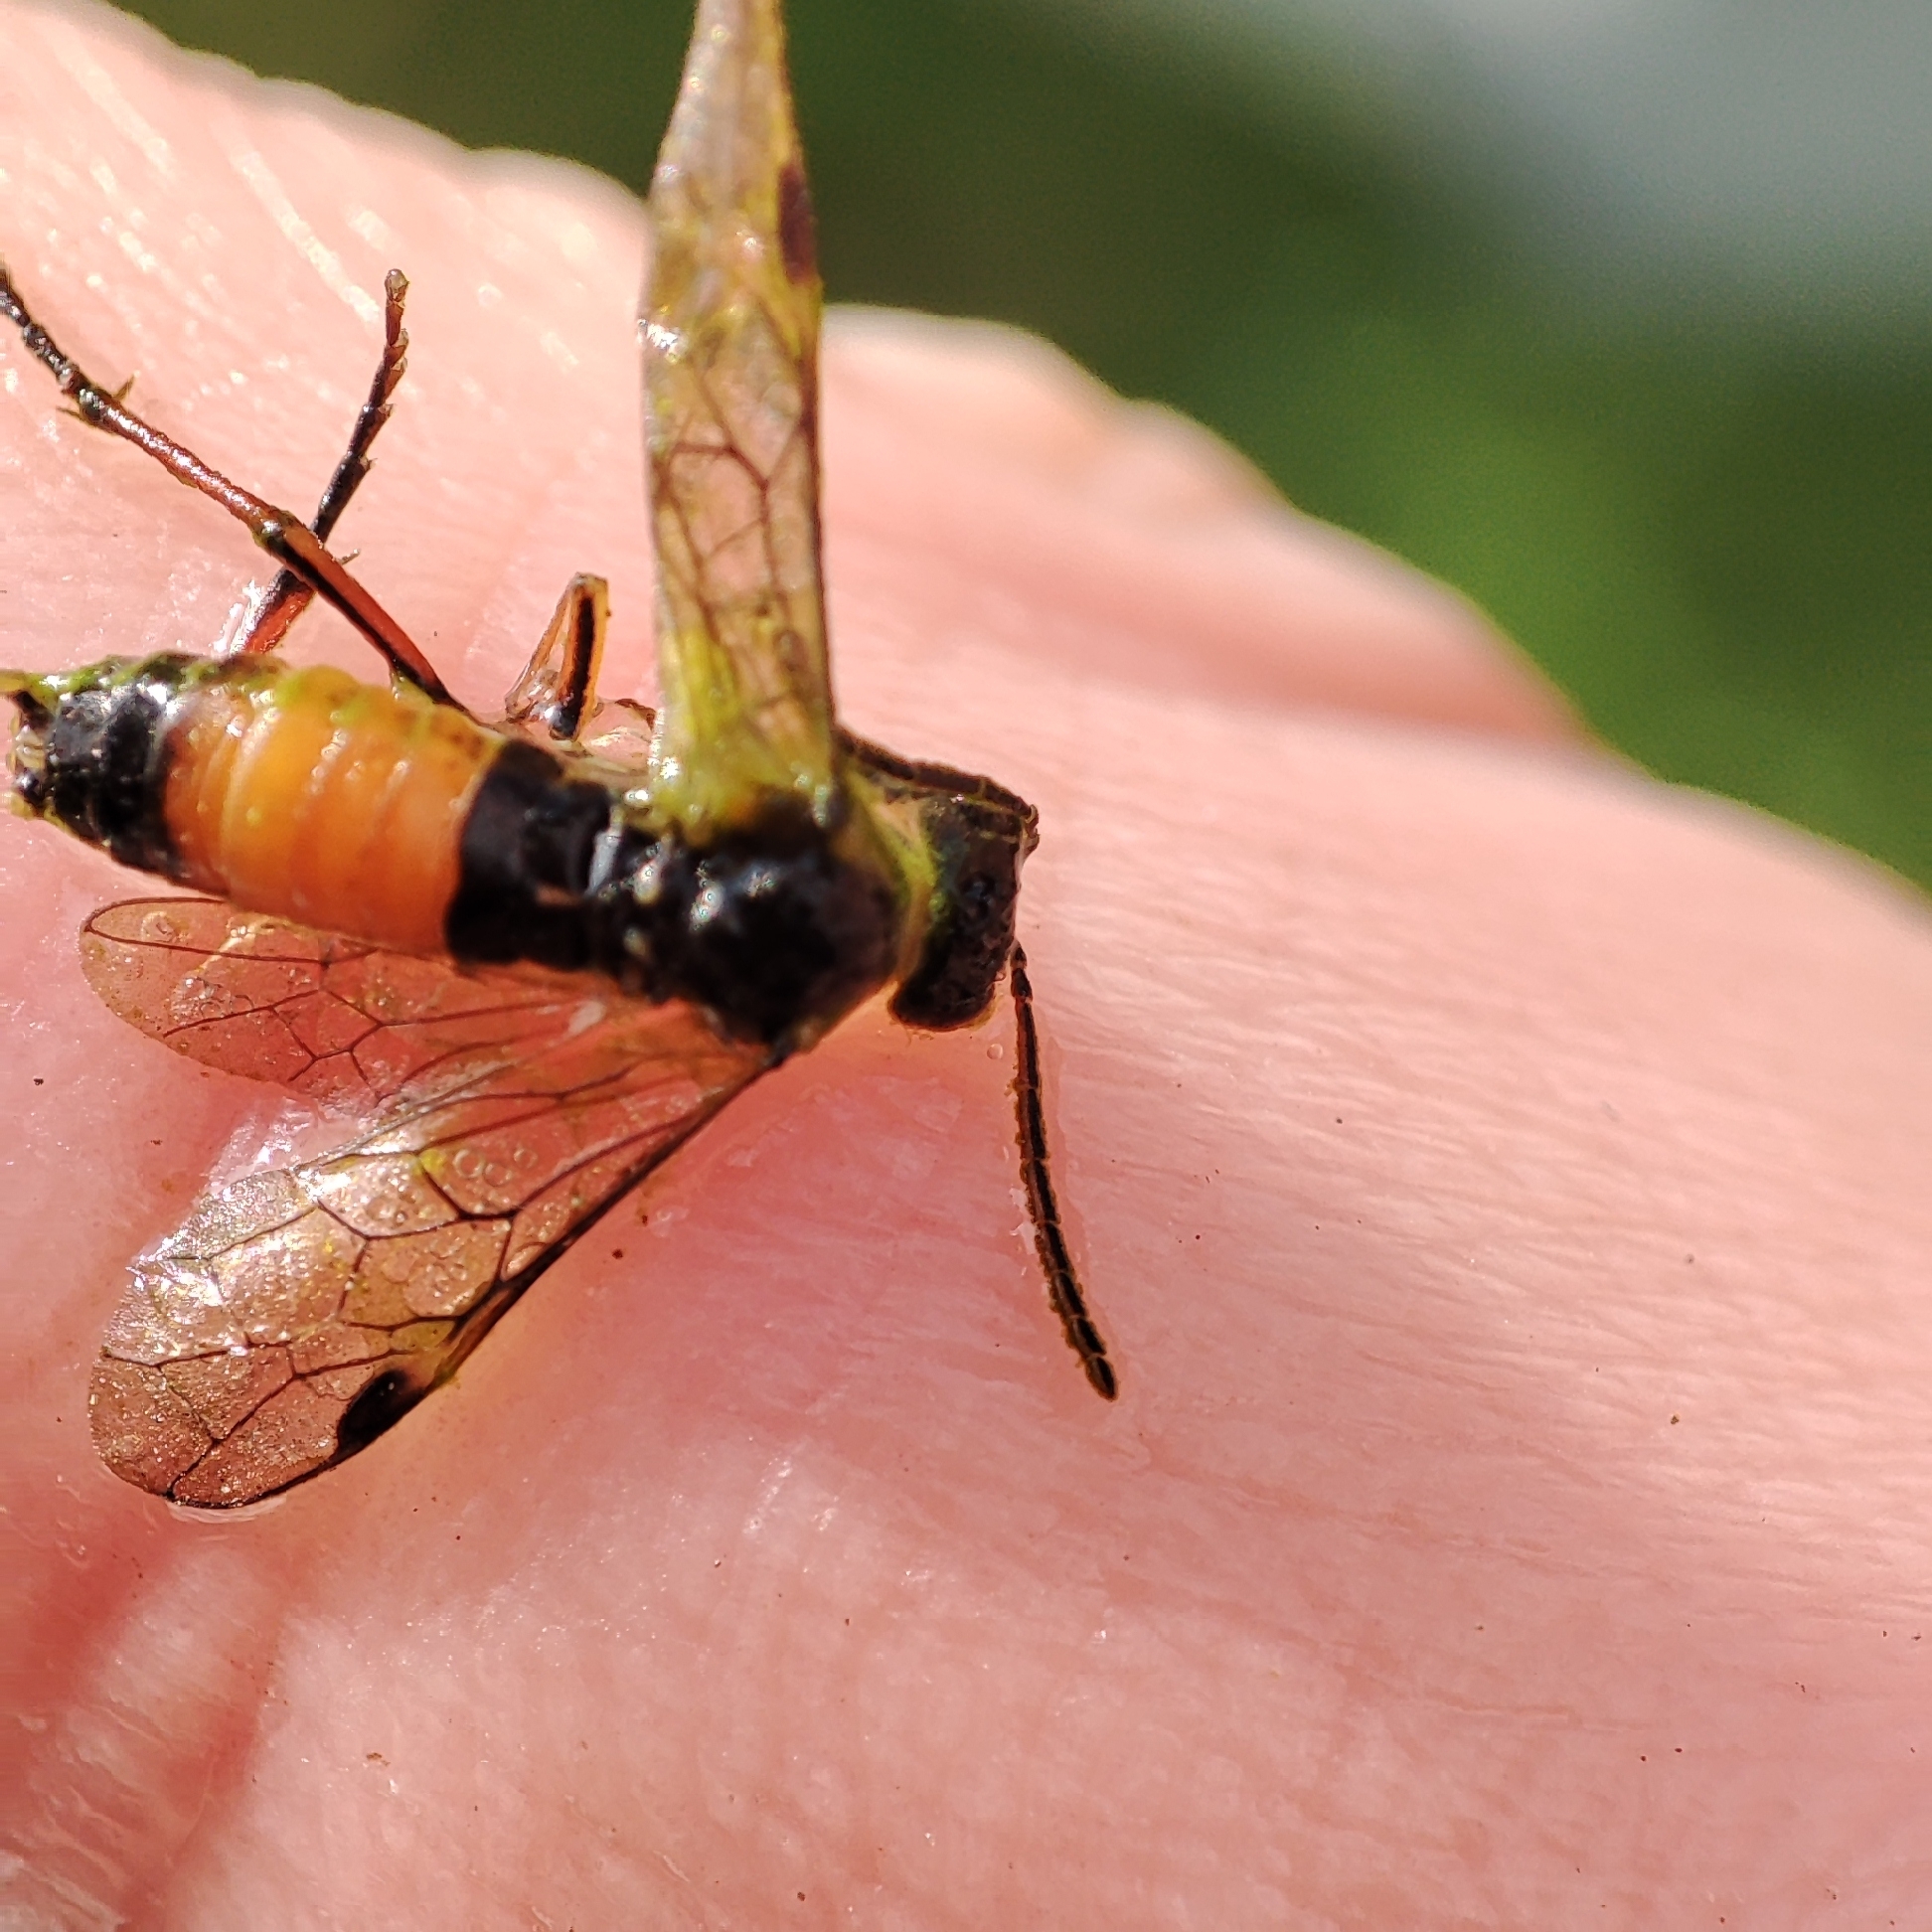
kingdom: Animalia
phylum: Arthropoda
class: Insecta
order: Hymenoptera
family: Tenthredinidae
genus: Aglaostigma
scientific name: Aglaostigma aucupariae
